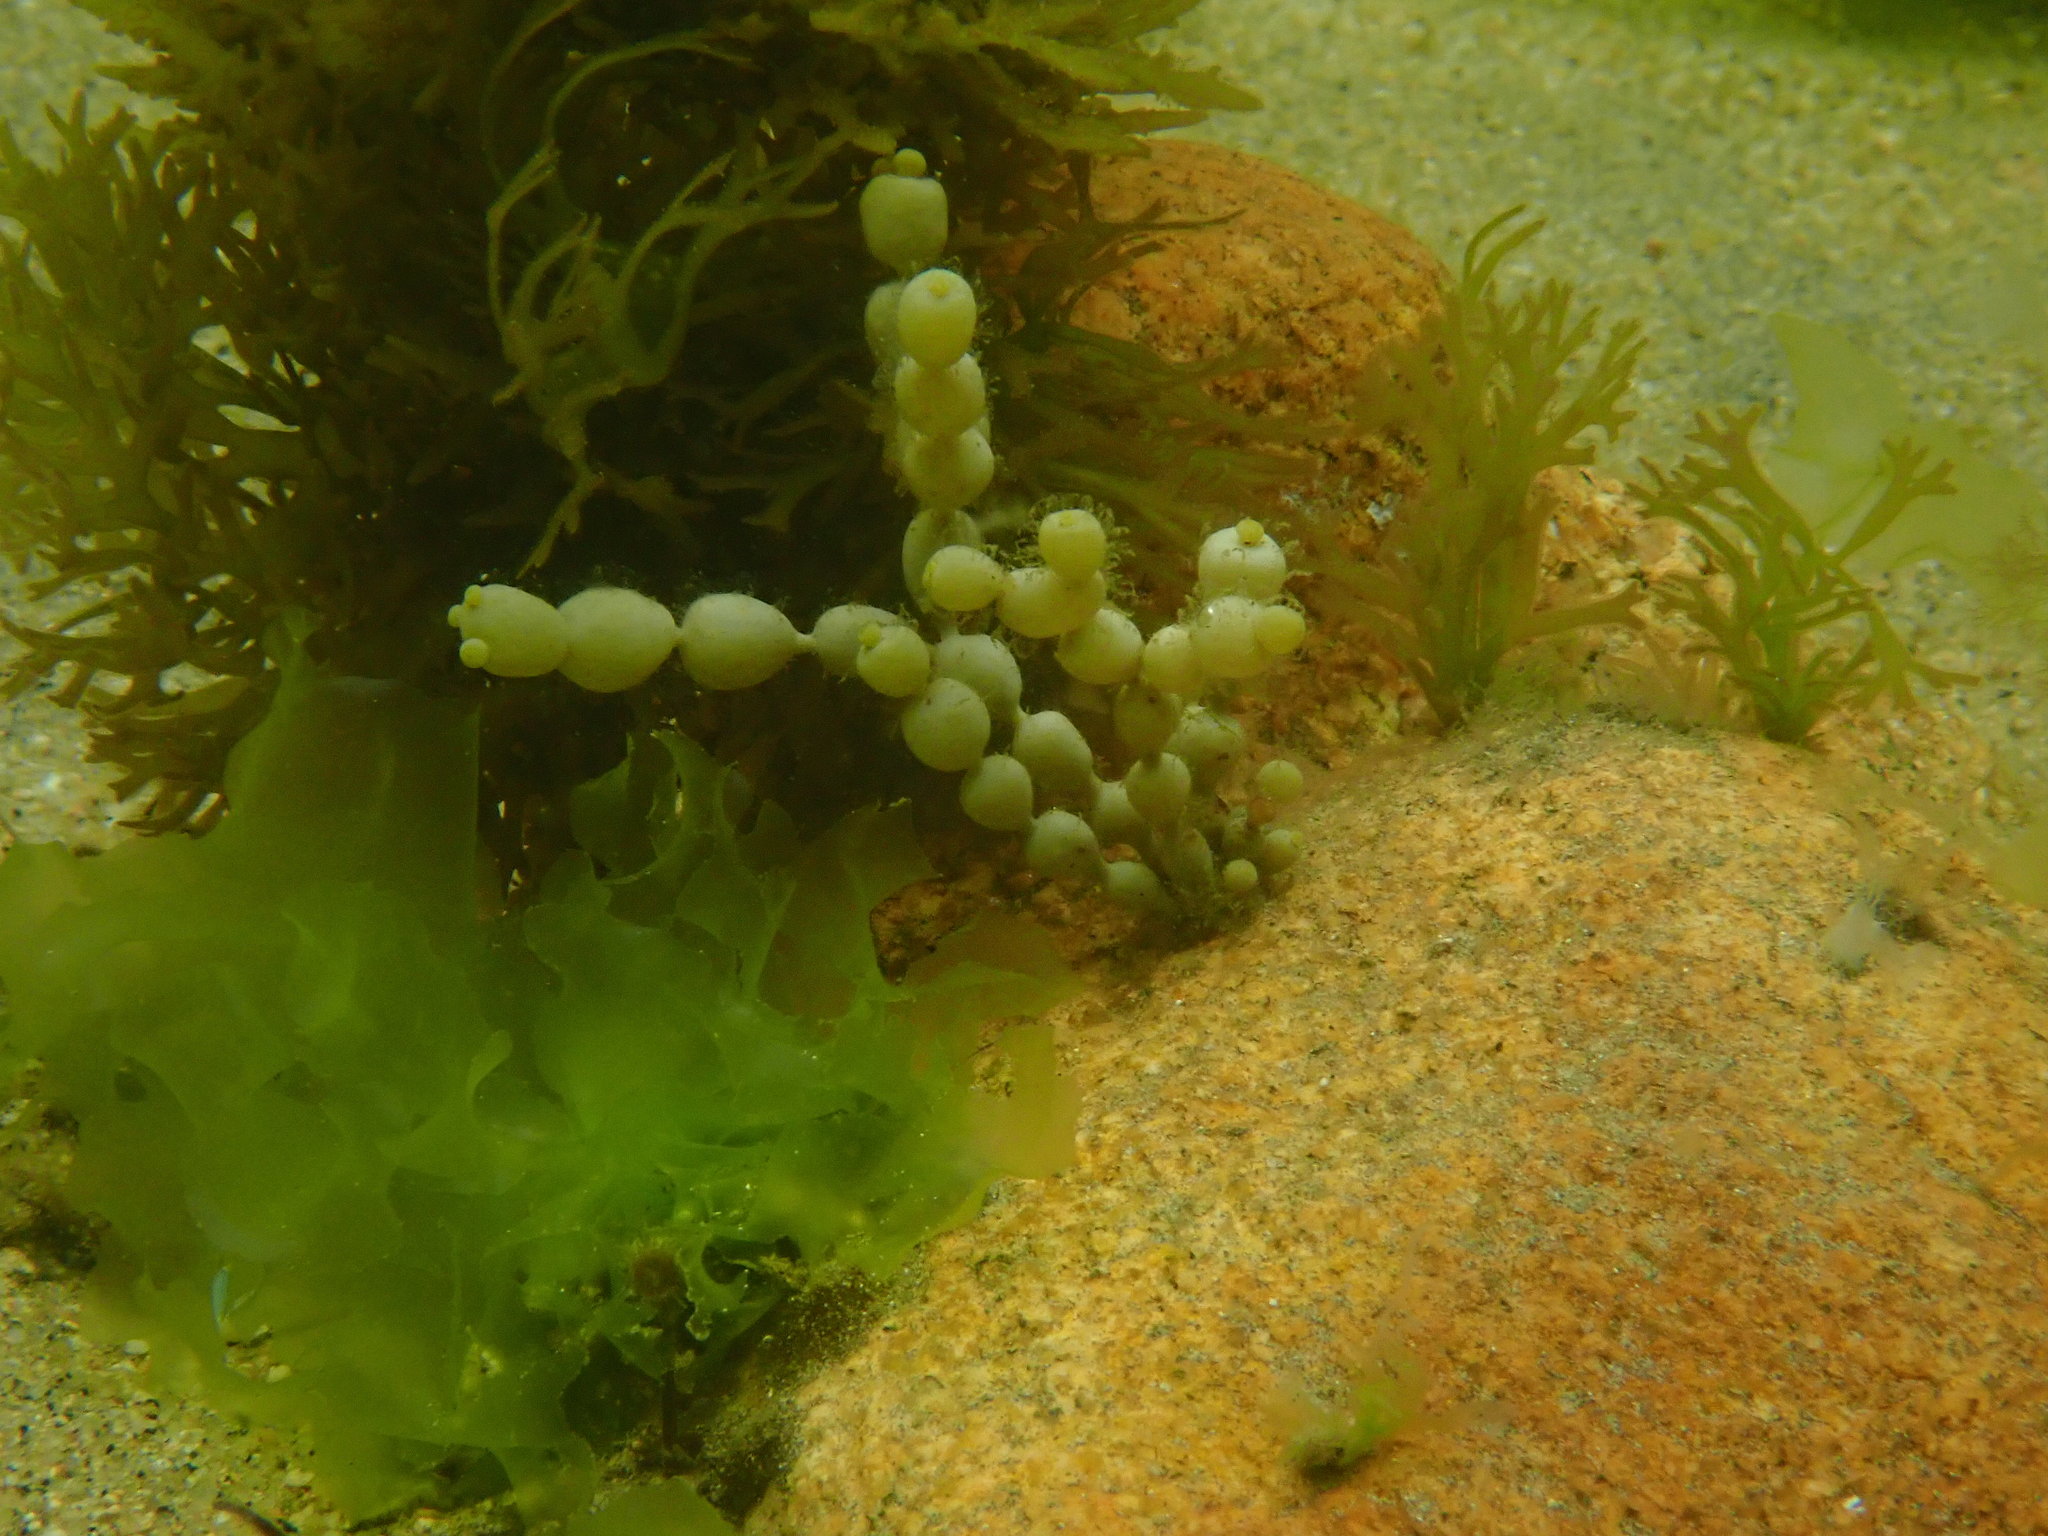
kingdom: Chromista
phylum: Ochrophyta
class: Phaeophyceae
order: Fucales
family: Hormosiraceae
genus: Hormosira
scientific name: Hormosira banksii
